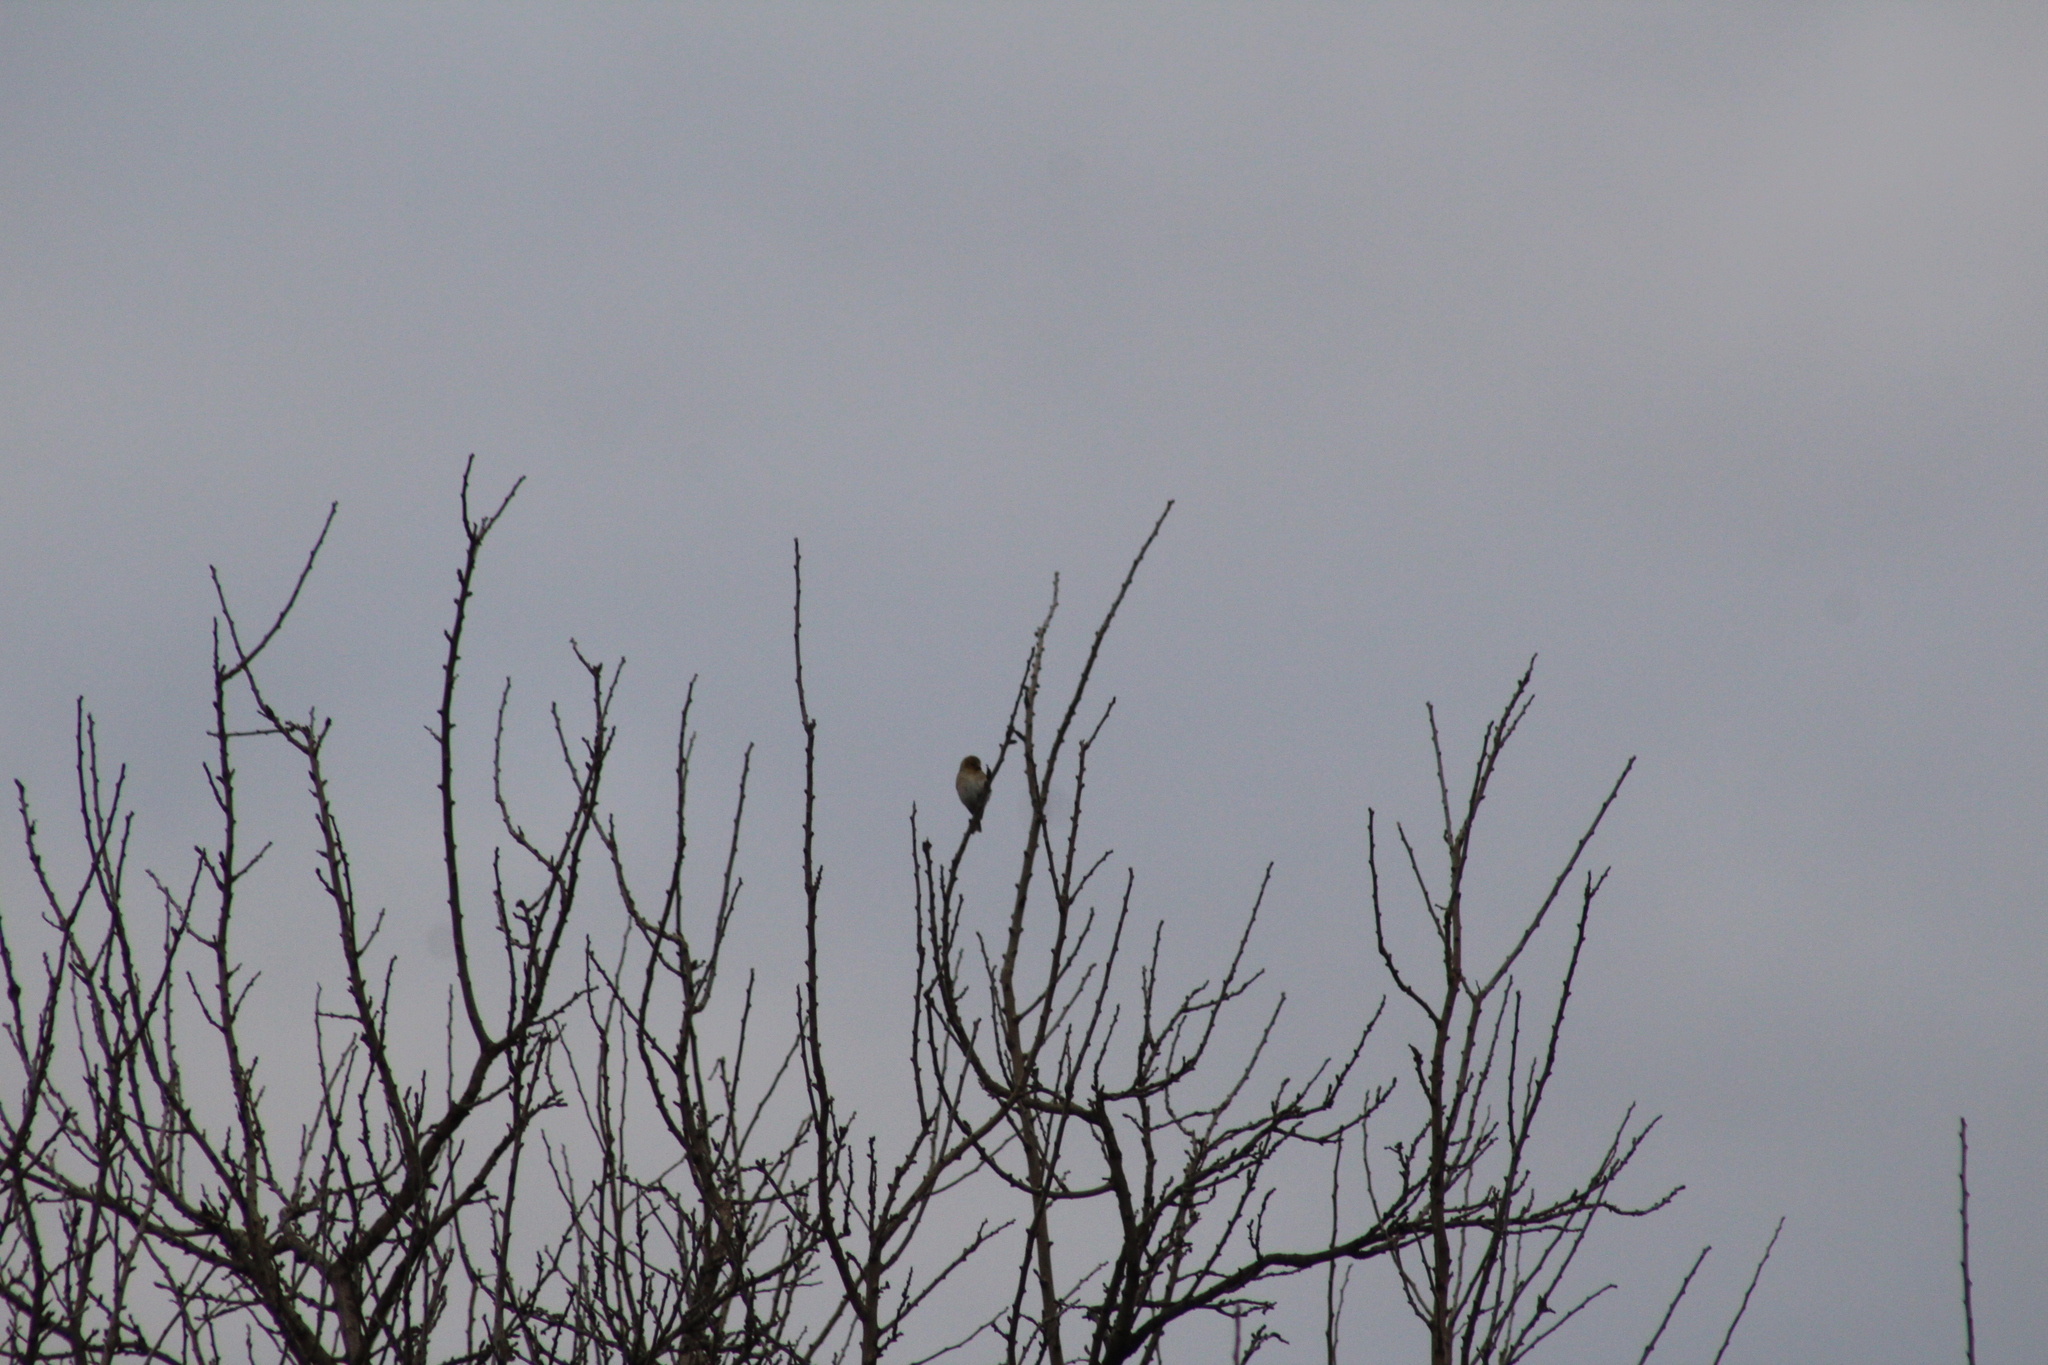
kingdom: Animalia
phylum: Chordata
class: Aves
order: Passeriformes
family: Fringillidae
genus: Spinus
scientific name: Spinus tristis
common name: American goldfinch
